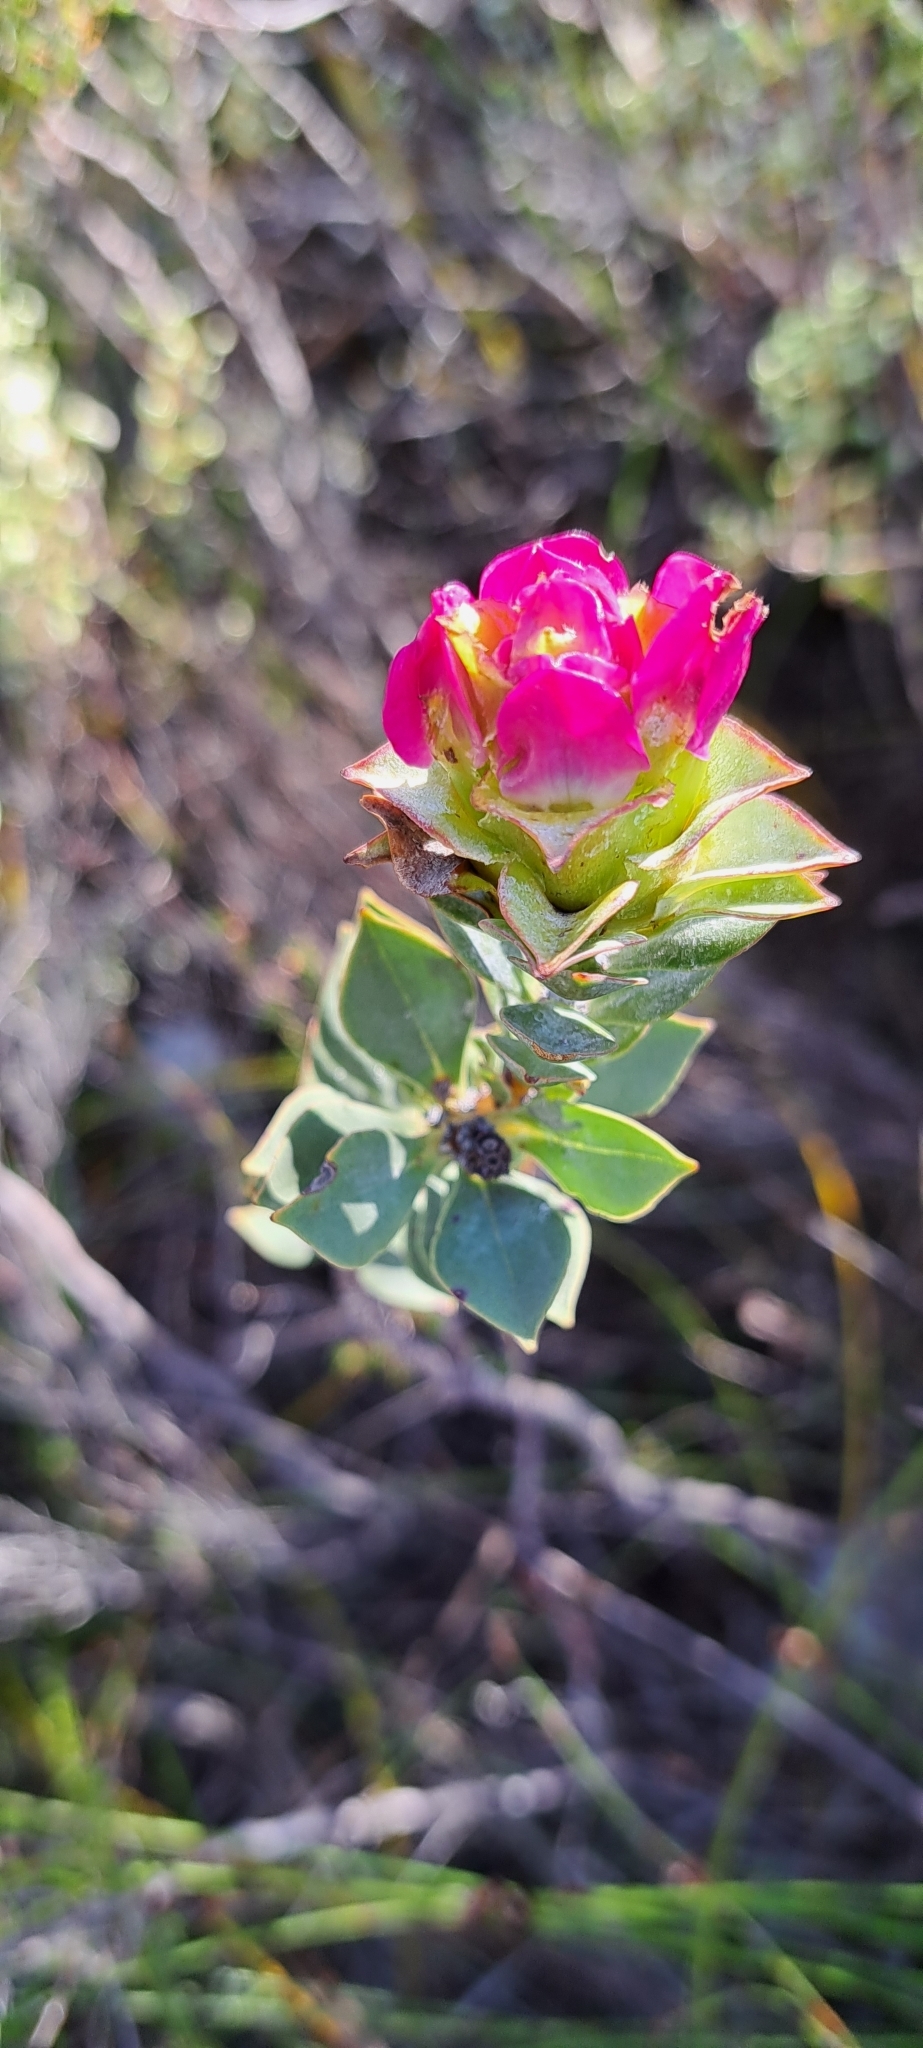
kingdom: Plantae
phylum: Tracheophyta
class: Magnoliopsida
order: Myrtales
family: Penaeaceae
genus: Saltera
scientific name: Saltera sarcocolla
